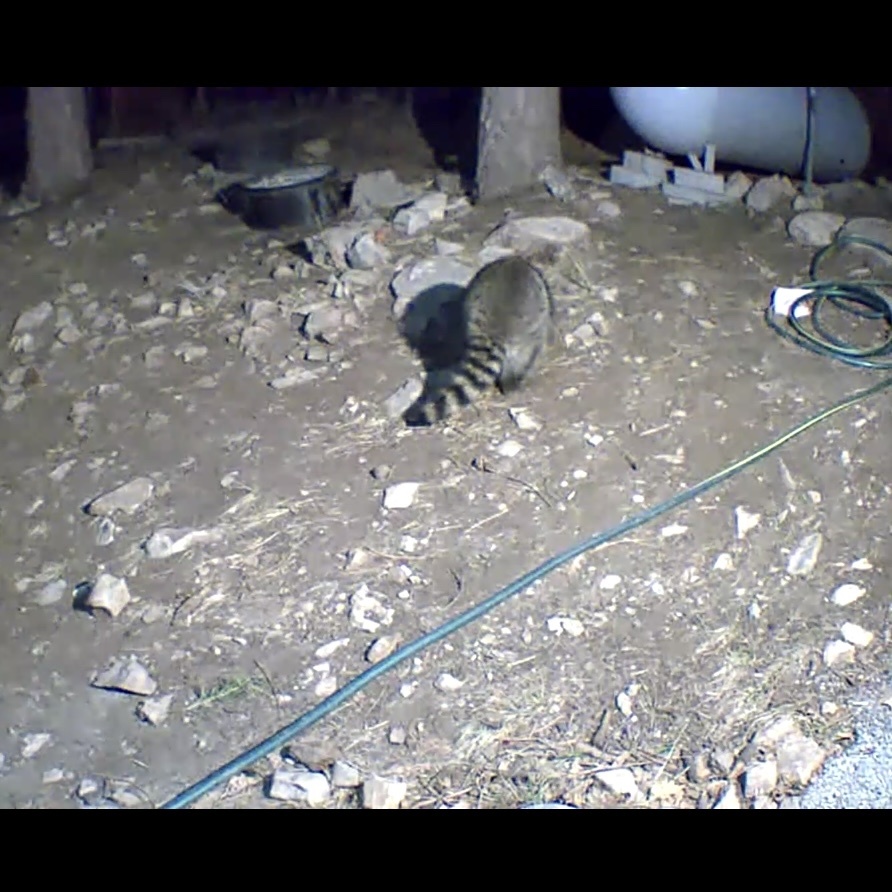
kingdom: Animalia
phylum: Chordata
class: Mammalia
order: Carnivora
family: Procyonidae
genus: Procyon
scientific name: Procyon lotor
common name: Raccoon
